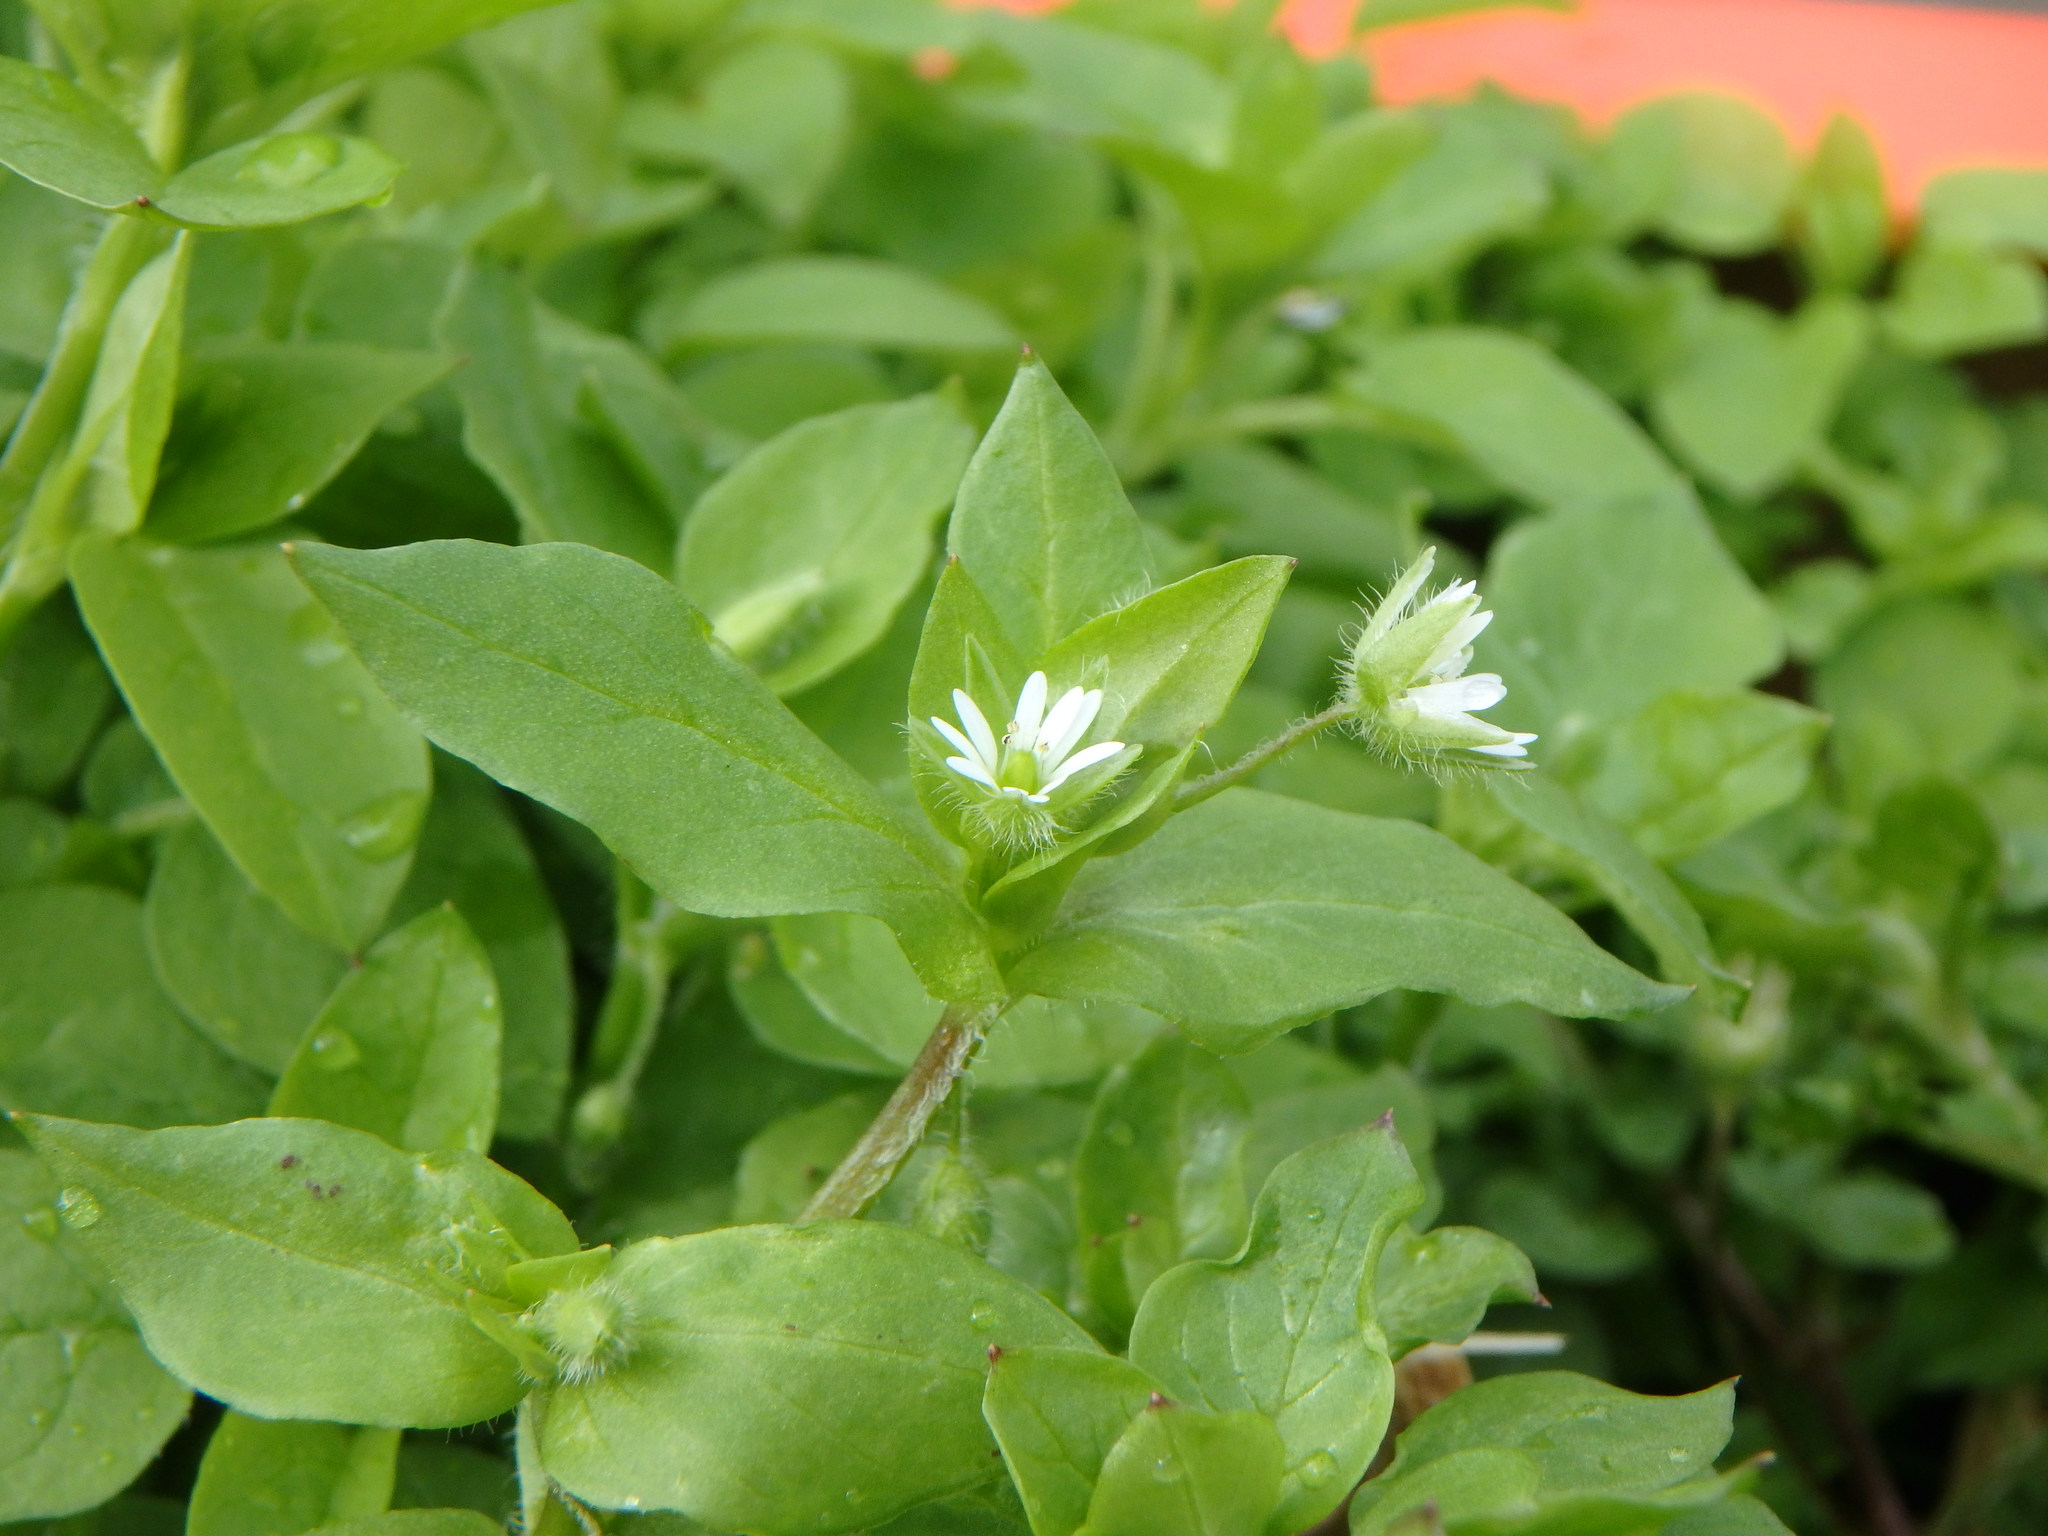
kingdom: Plantae
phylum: Tracheophyta
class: Magnoliopsida
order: Caryophyllales
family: Caryophyllaceae
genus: Stellaria
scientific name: Stellaria media
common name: Common chickweed
